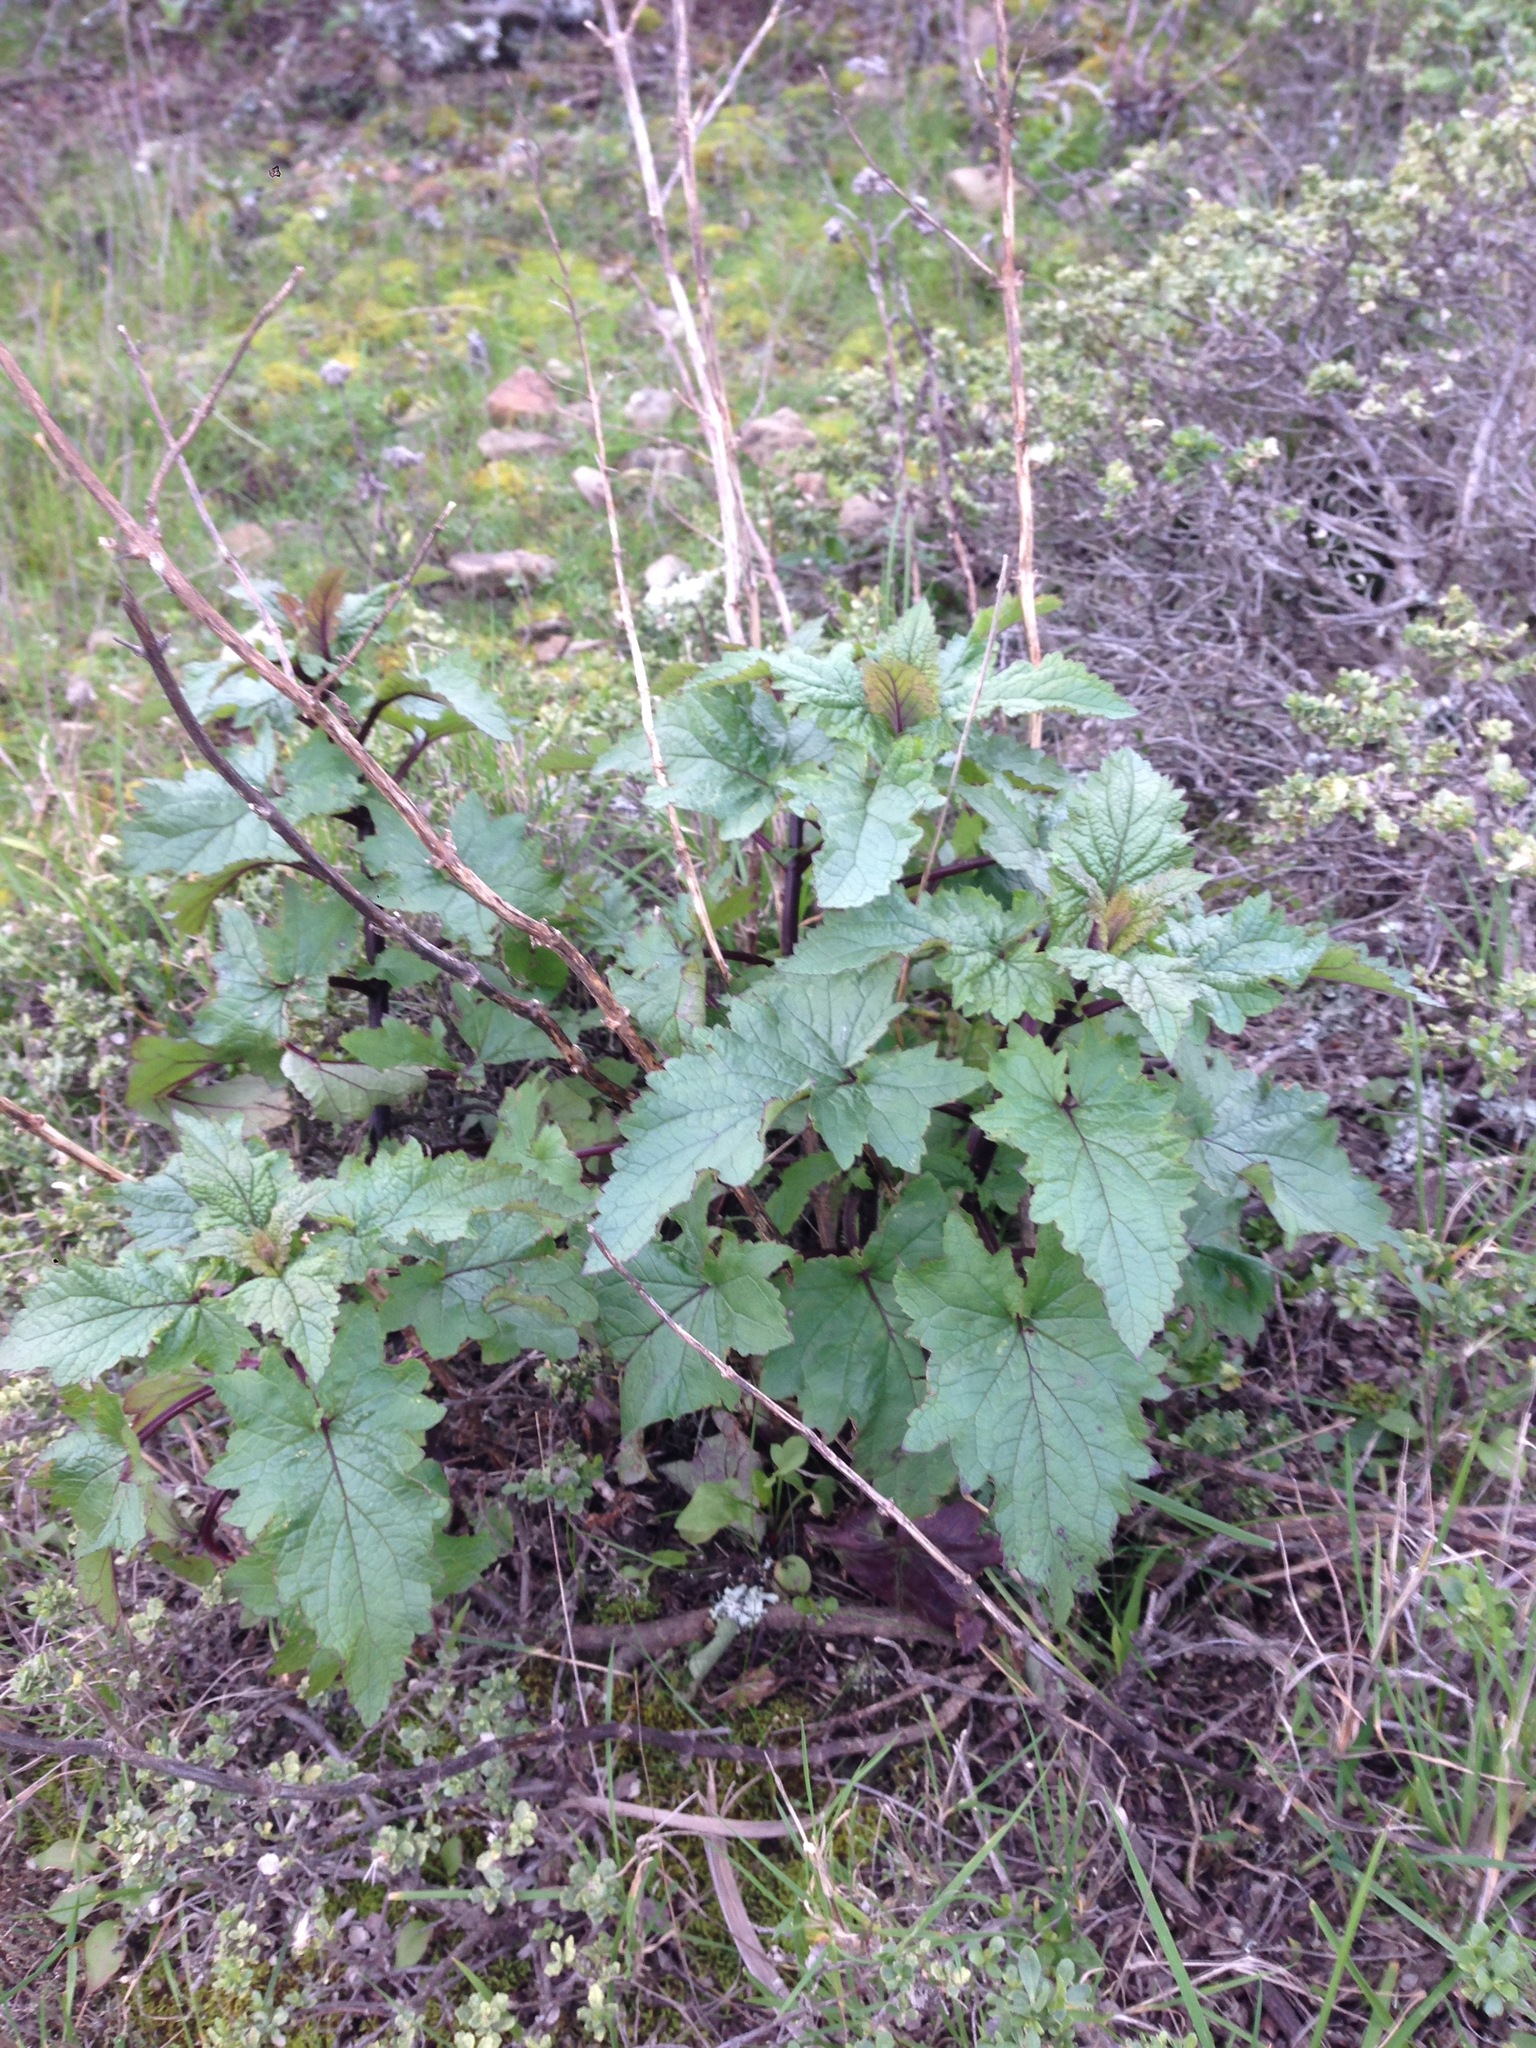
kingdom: Plantae
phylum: Tracheophyta
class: Magnoliopsida
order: Lamiales
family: Scrophulariaceae
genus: Scrophularia
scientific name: Scrophularia californica
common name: California figwort
